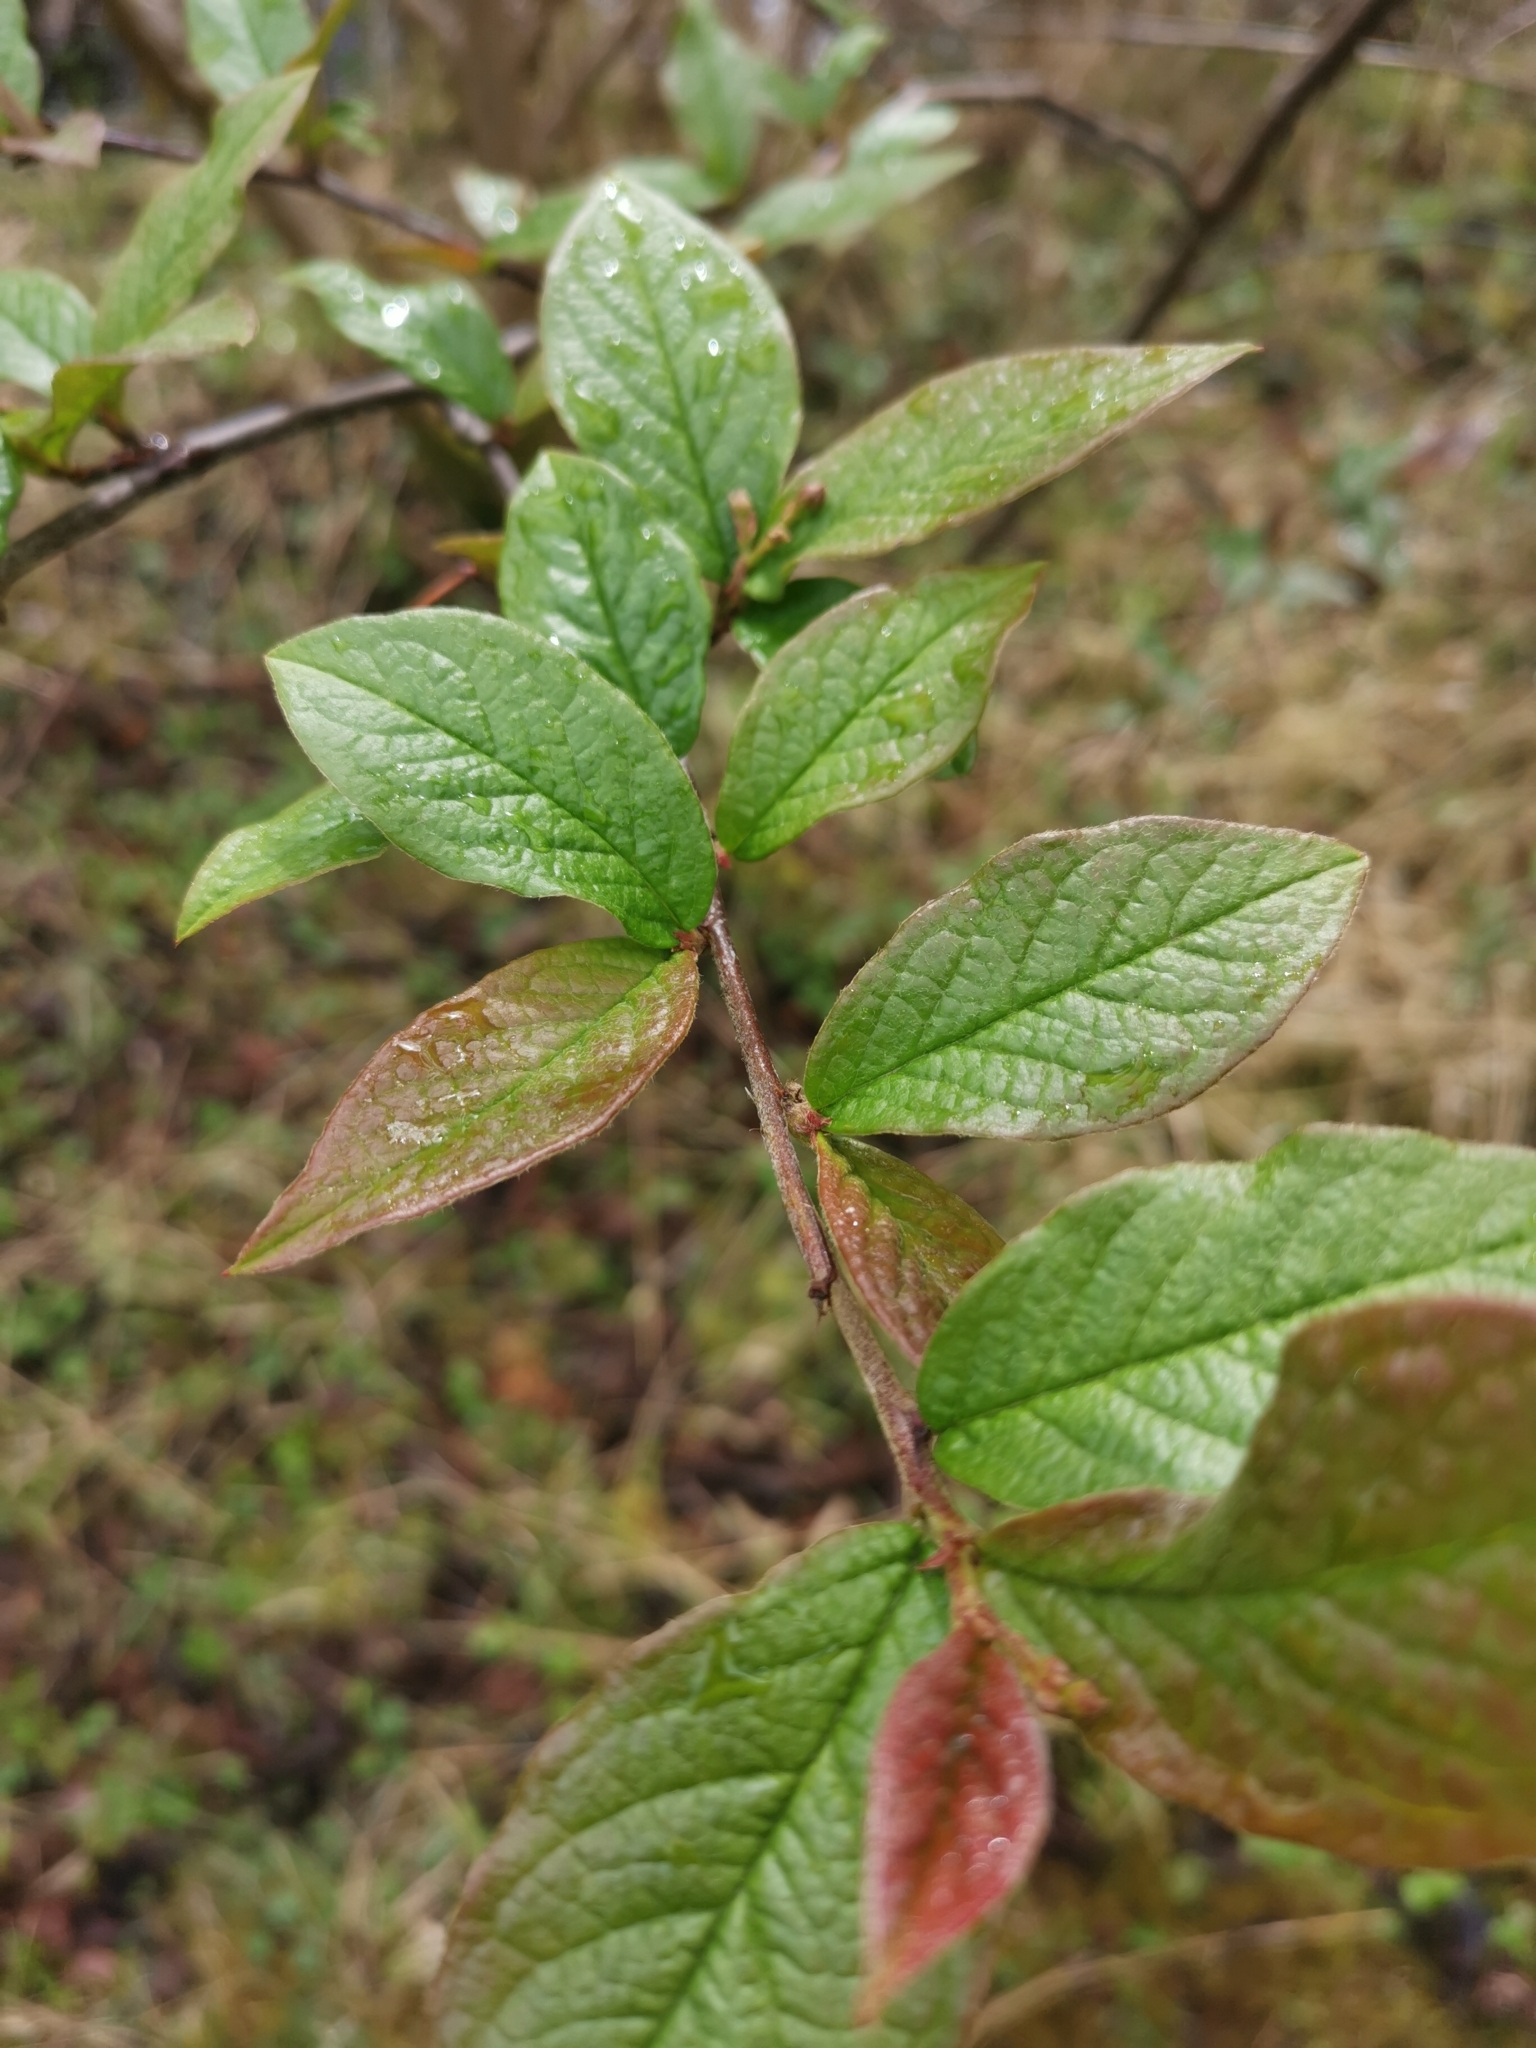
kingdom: Plantae
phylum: Tracheophyta
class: Magnoliopsida
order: Rosales
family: Rosaceae
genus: Cotoneaster
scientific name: Cotoneaster bullatus
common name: Hollyberry cotoneaster
